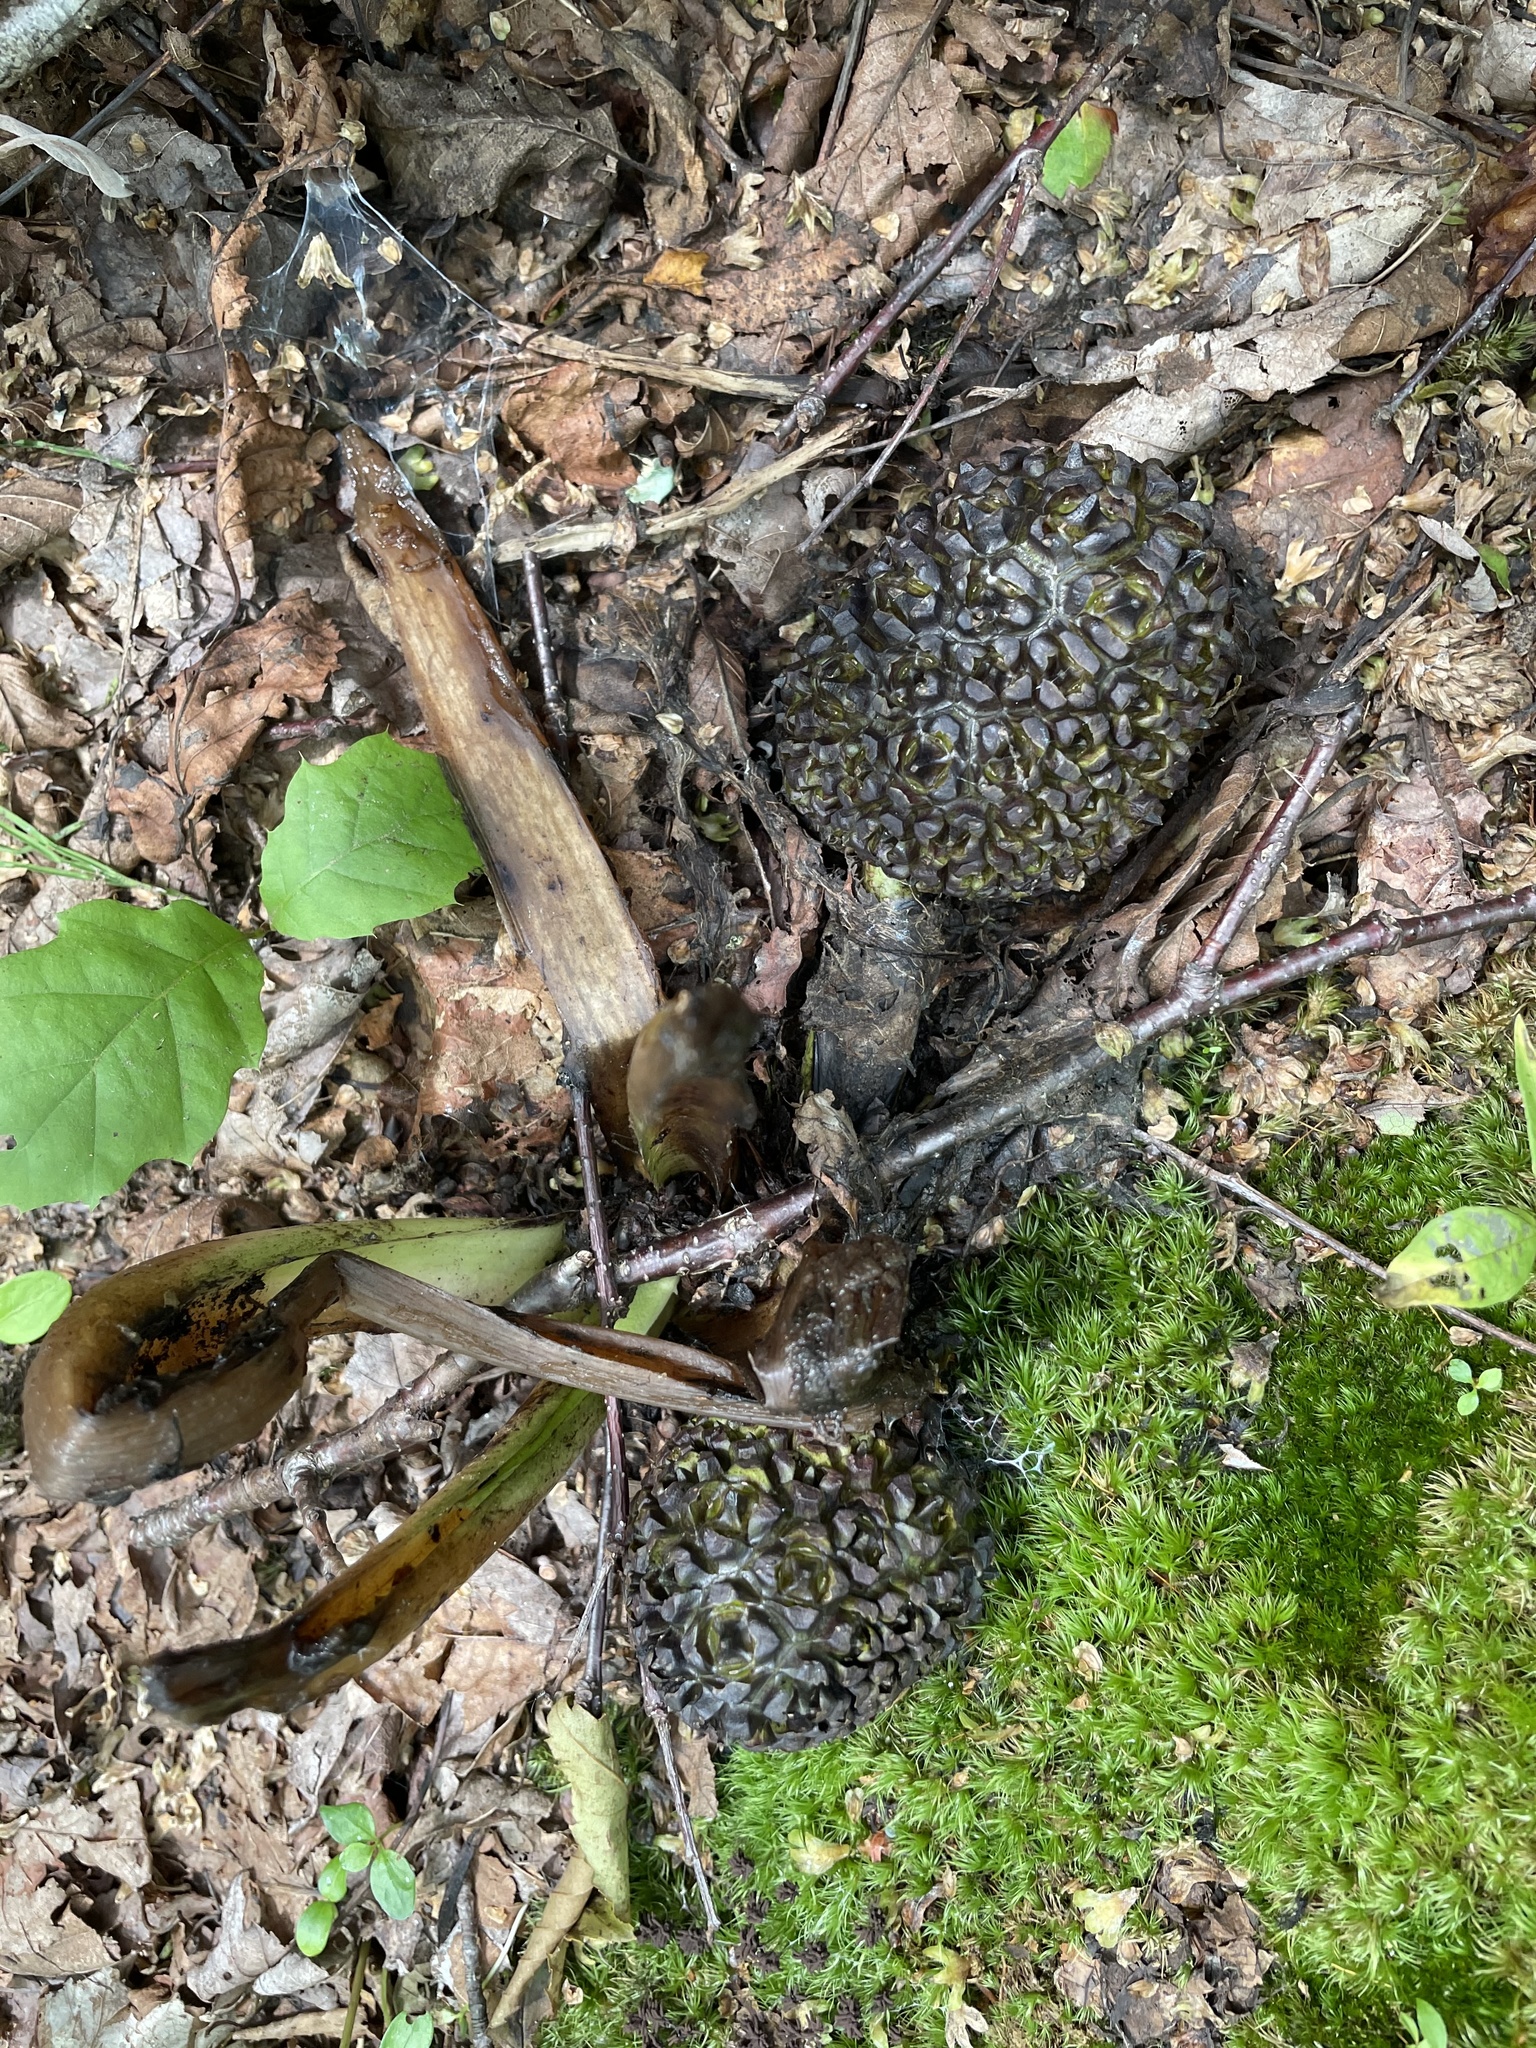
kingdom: Plantae
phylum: Tracheophyta
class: Liliopsida
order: Alismatales
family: Araceae
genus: Symplocarpus
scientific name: Symplocarpus foetidus
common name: Eastern skunk cabbage
